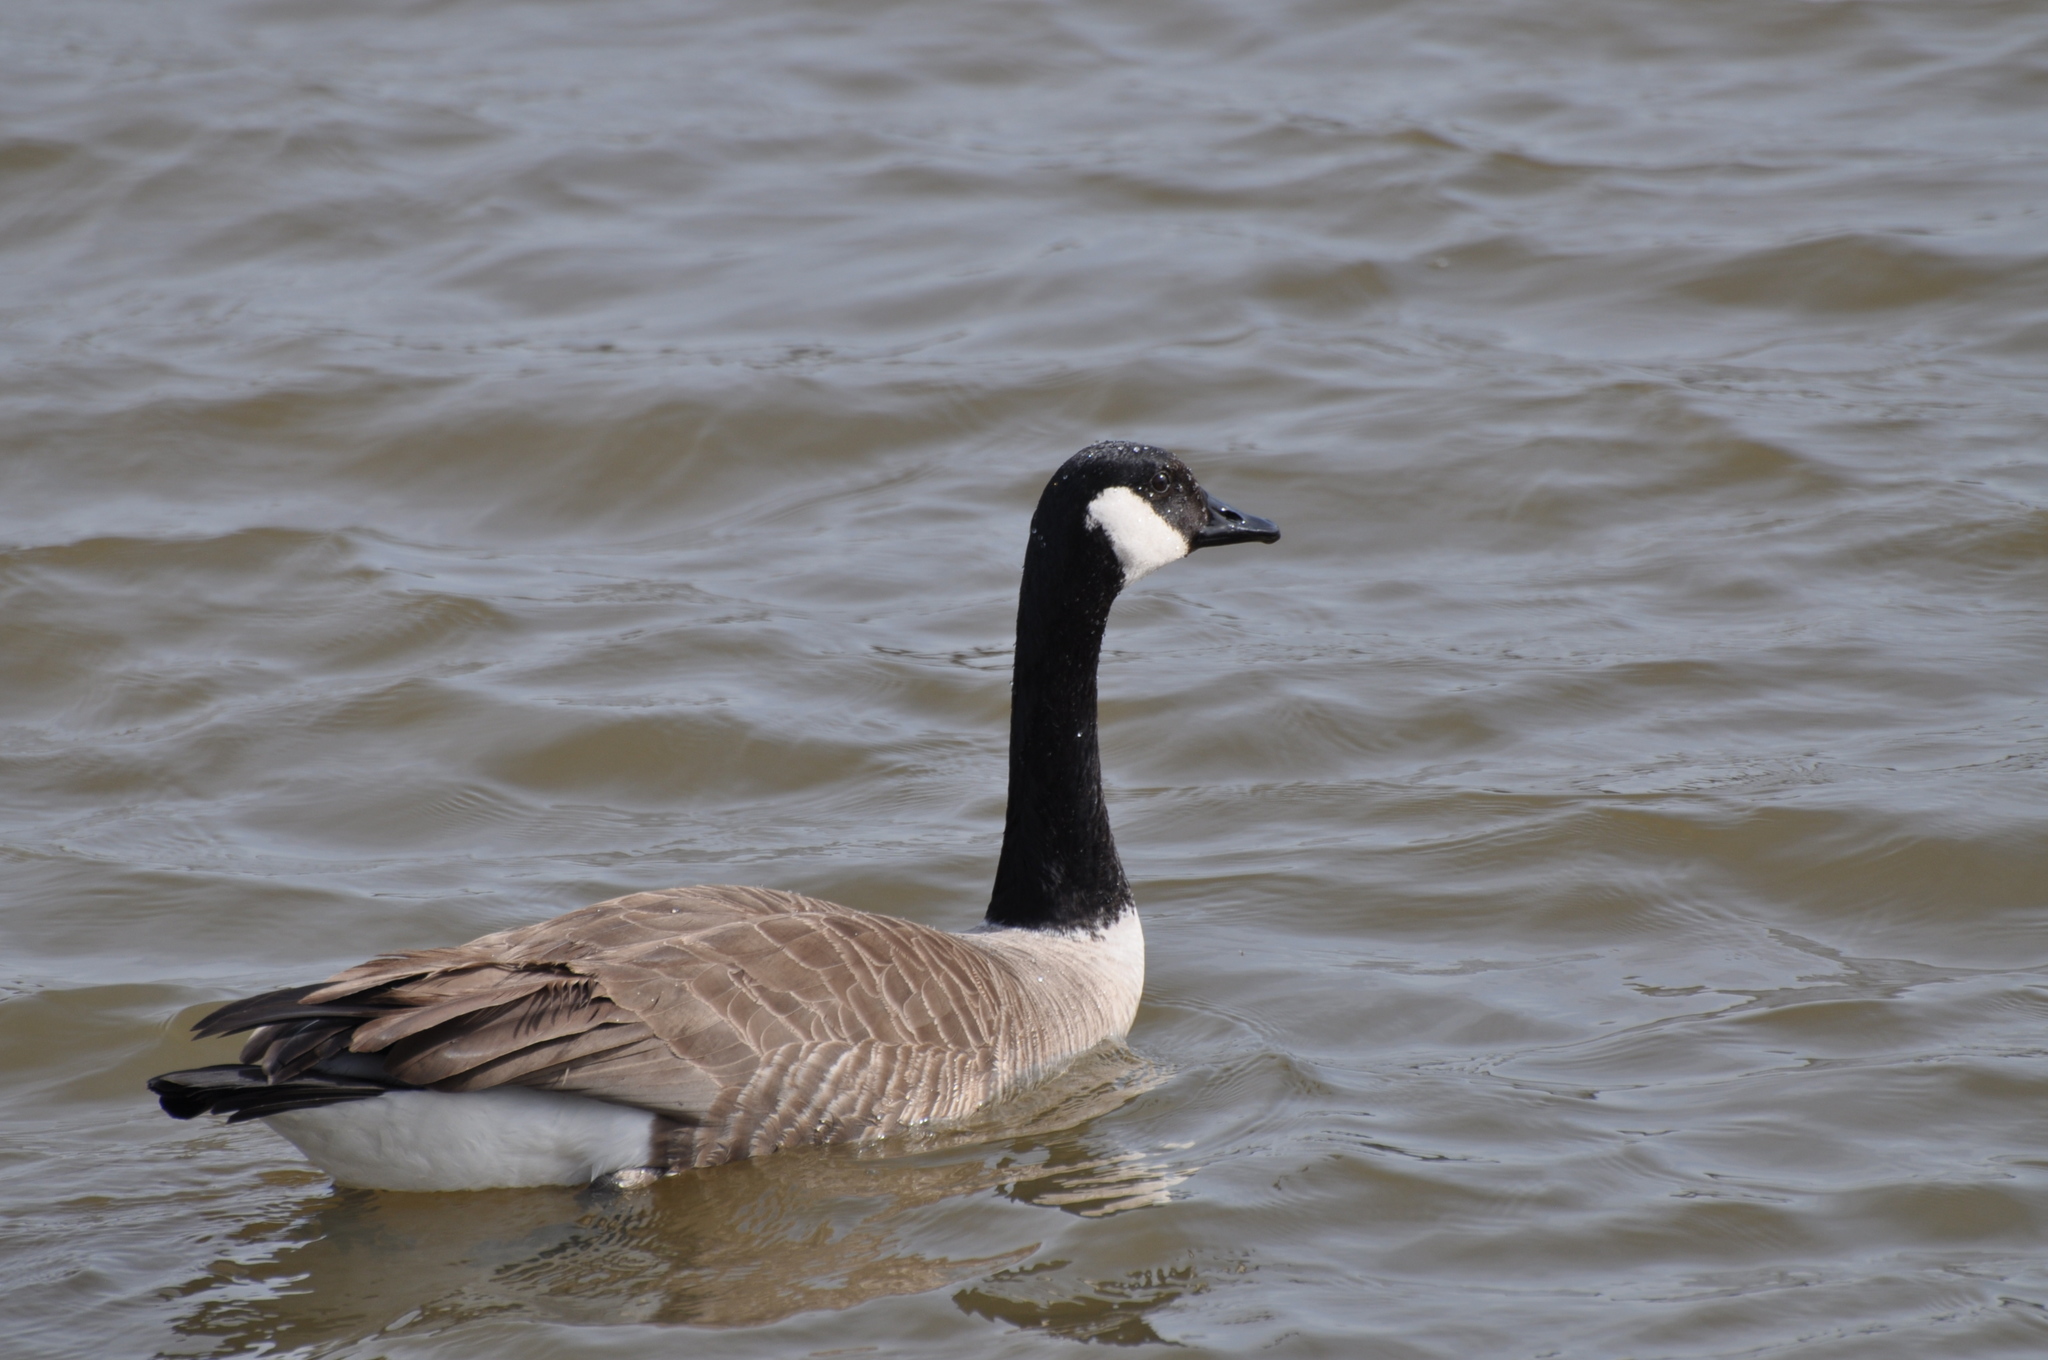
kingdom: Animalia
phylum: Chordata
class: Aves
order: Anseriformes
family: Anatidae
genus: Branta
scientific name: Branta canadensis
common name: Canada goose
